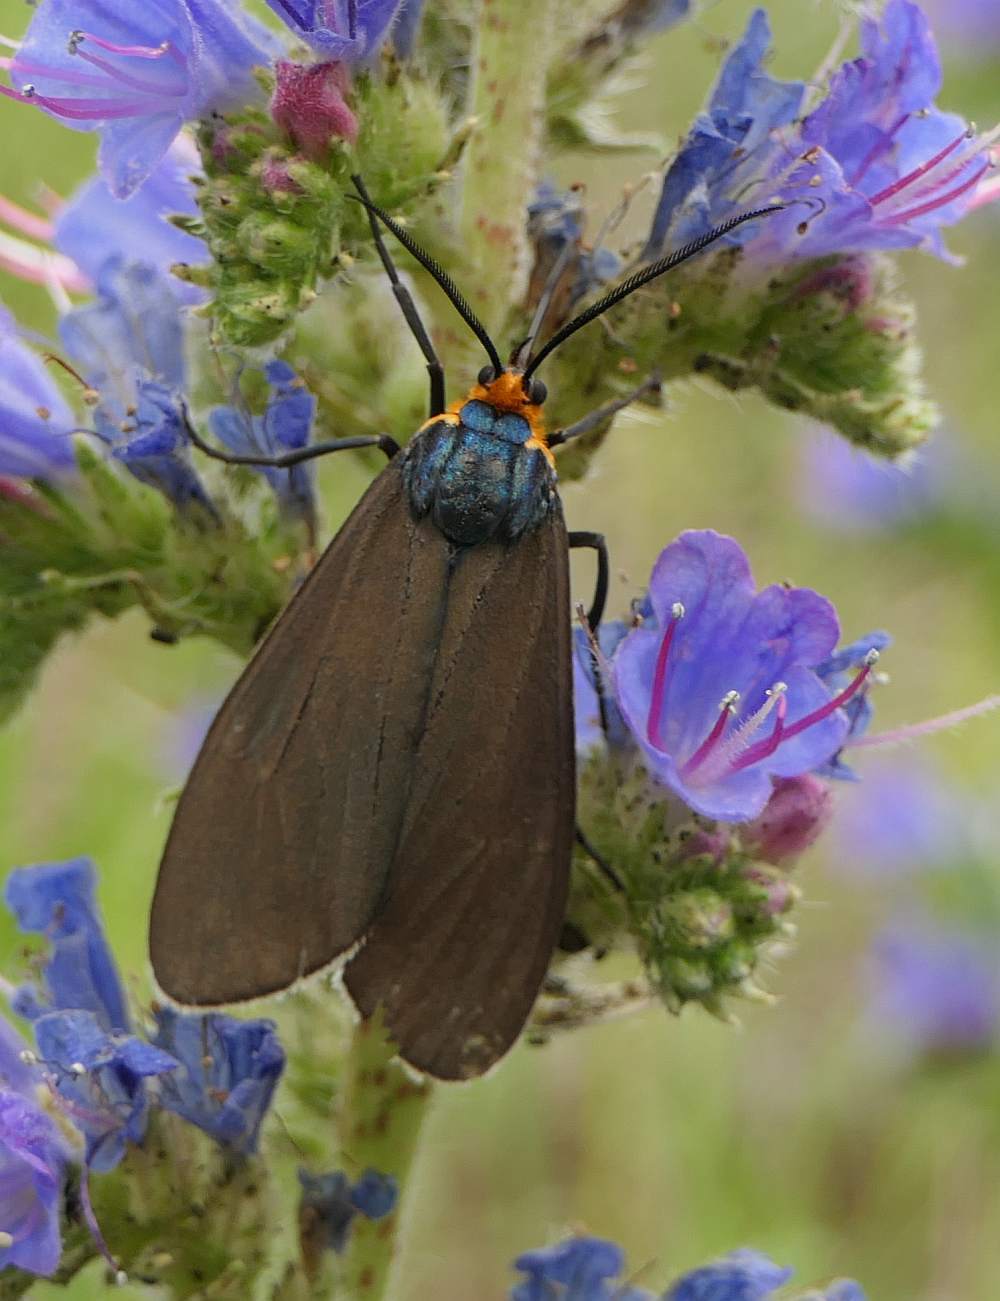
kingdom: Animalia
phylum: Arthropoda
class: Insecta
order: Lepidoptera
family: Erebidae
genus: Ctenucha
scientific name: Ctenucha virginica
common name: Virginia ctenucha moth
